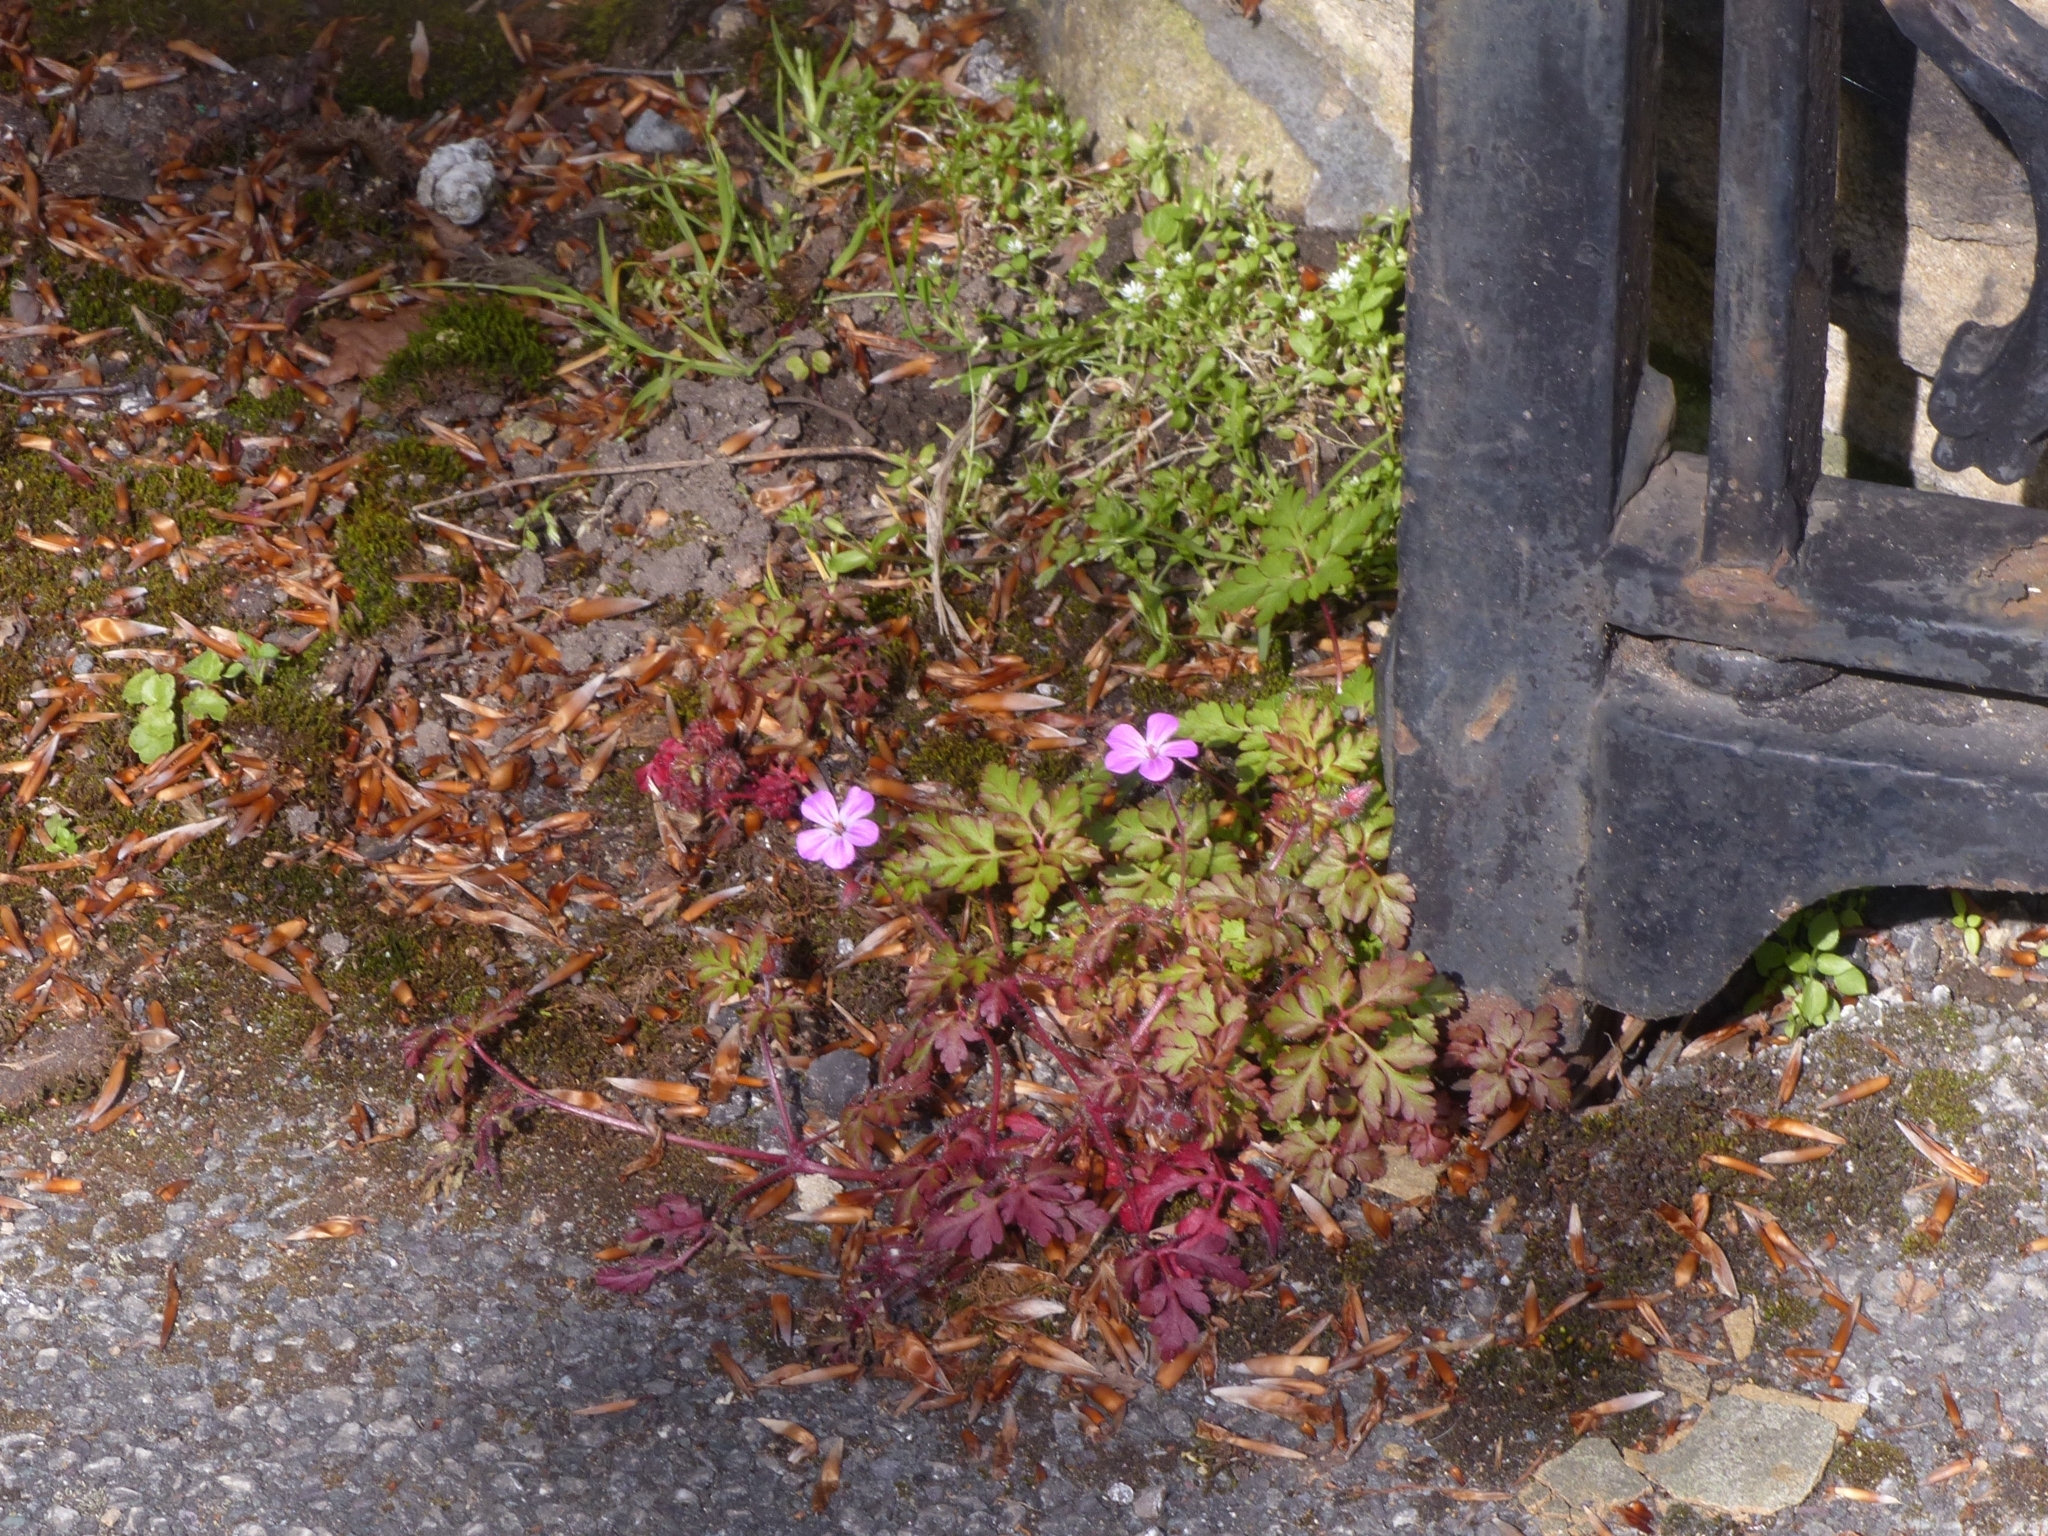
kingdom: Plantae
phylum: Tracheophyta
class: Magnoliopsida
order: Geraniales
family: Geraniaceae
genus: Geranium
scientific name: Geranium robertianum
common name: Herb-robert
